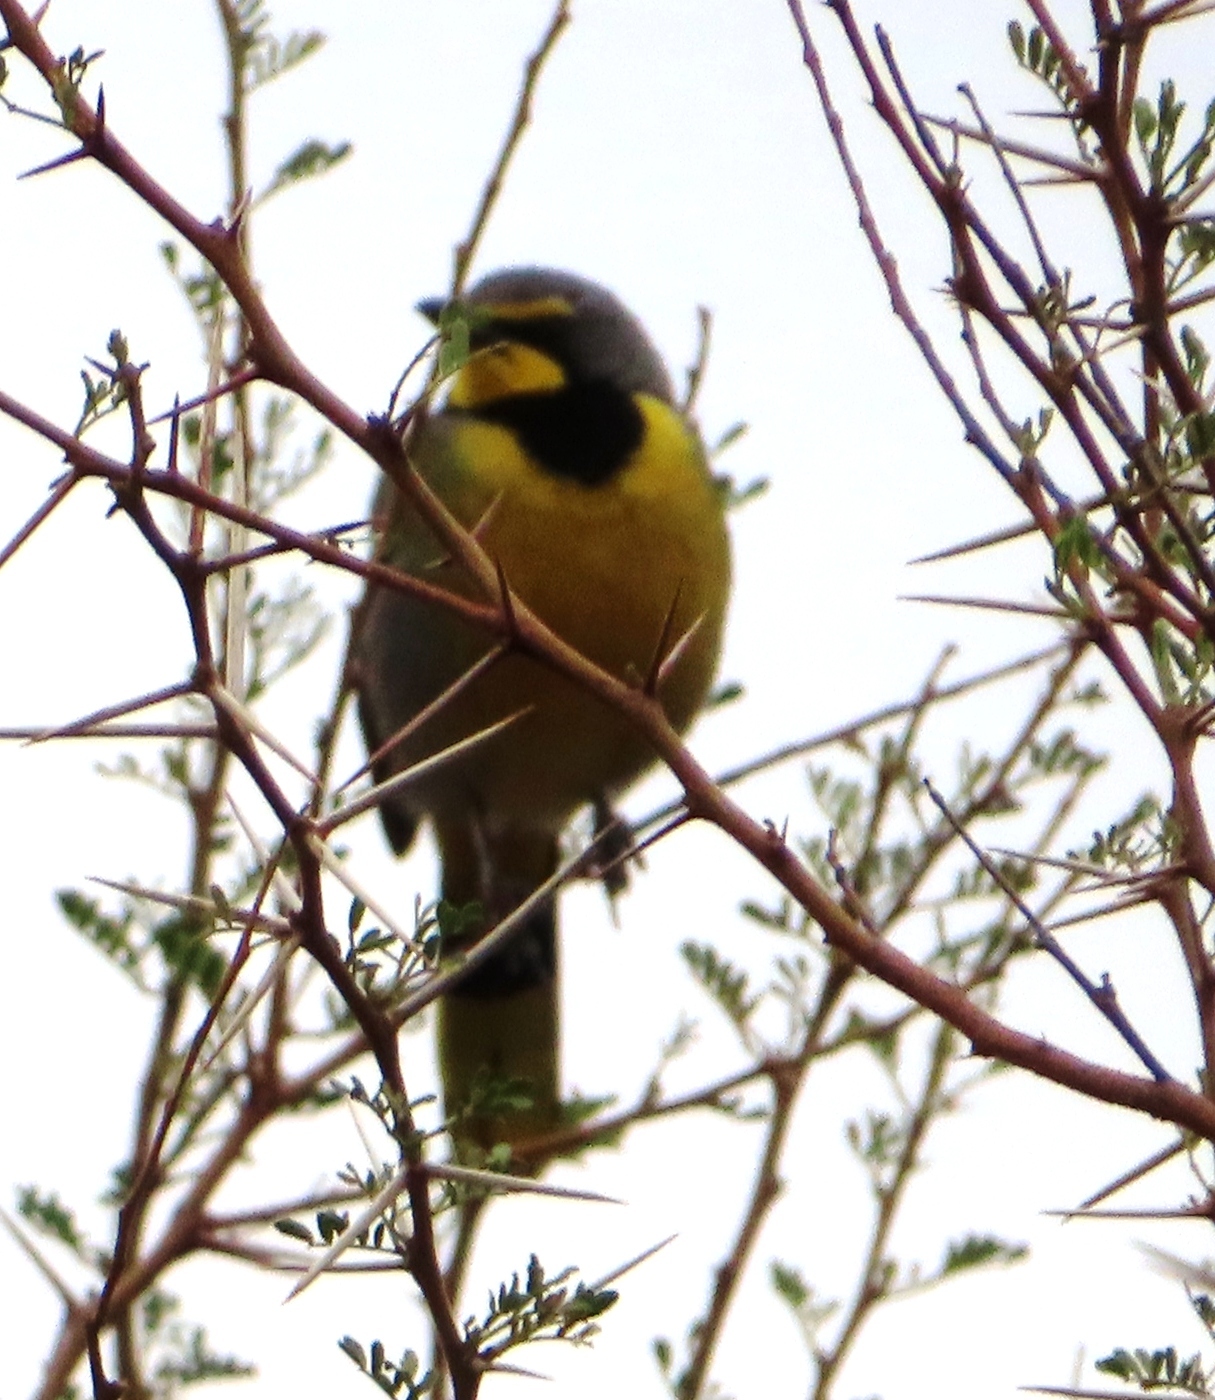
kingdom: Animalia
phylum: Chordata
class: Aves
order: Passeriformes
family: Malaconotidae
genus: Telophorus
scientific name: Telophorus zeylonus
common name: Bokmakierie
